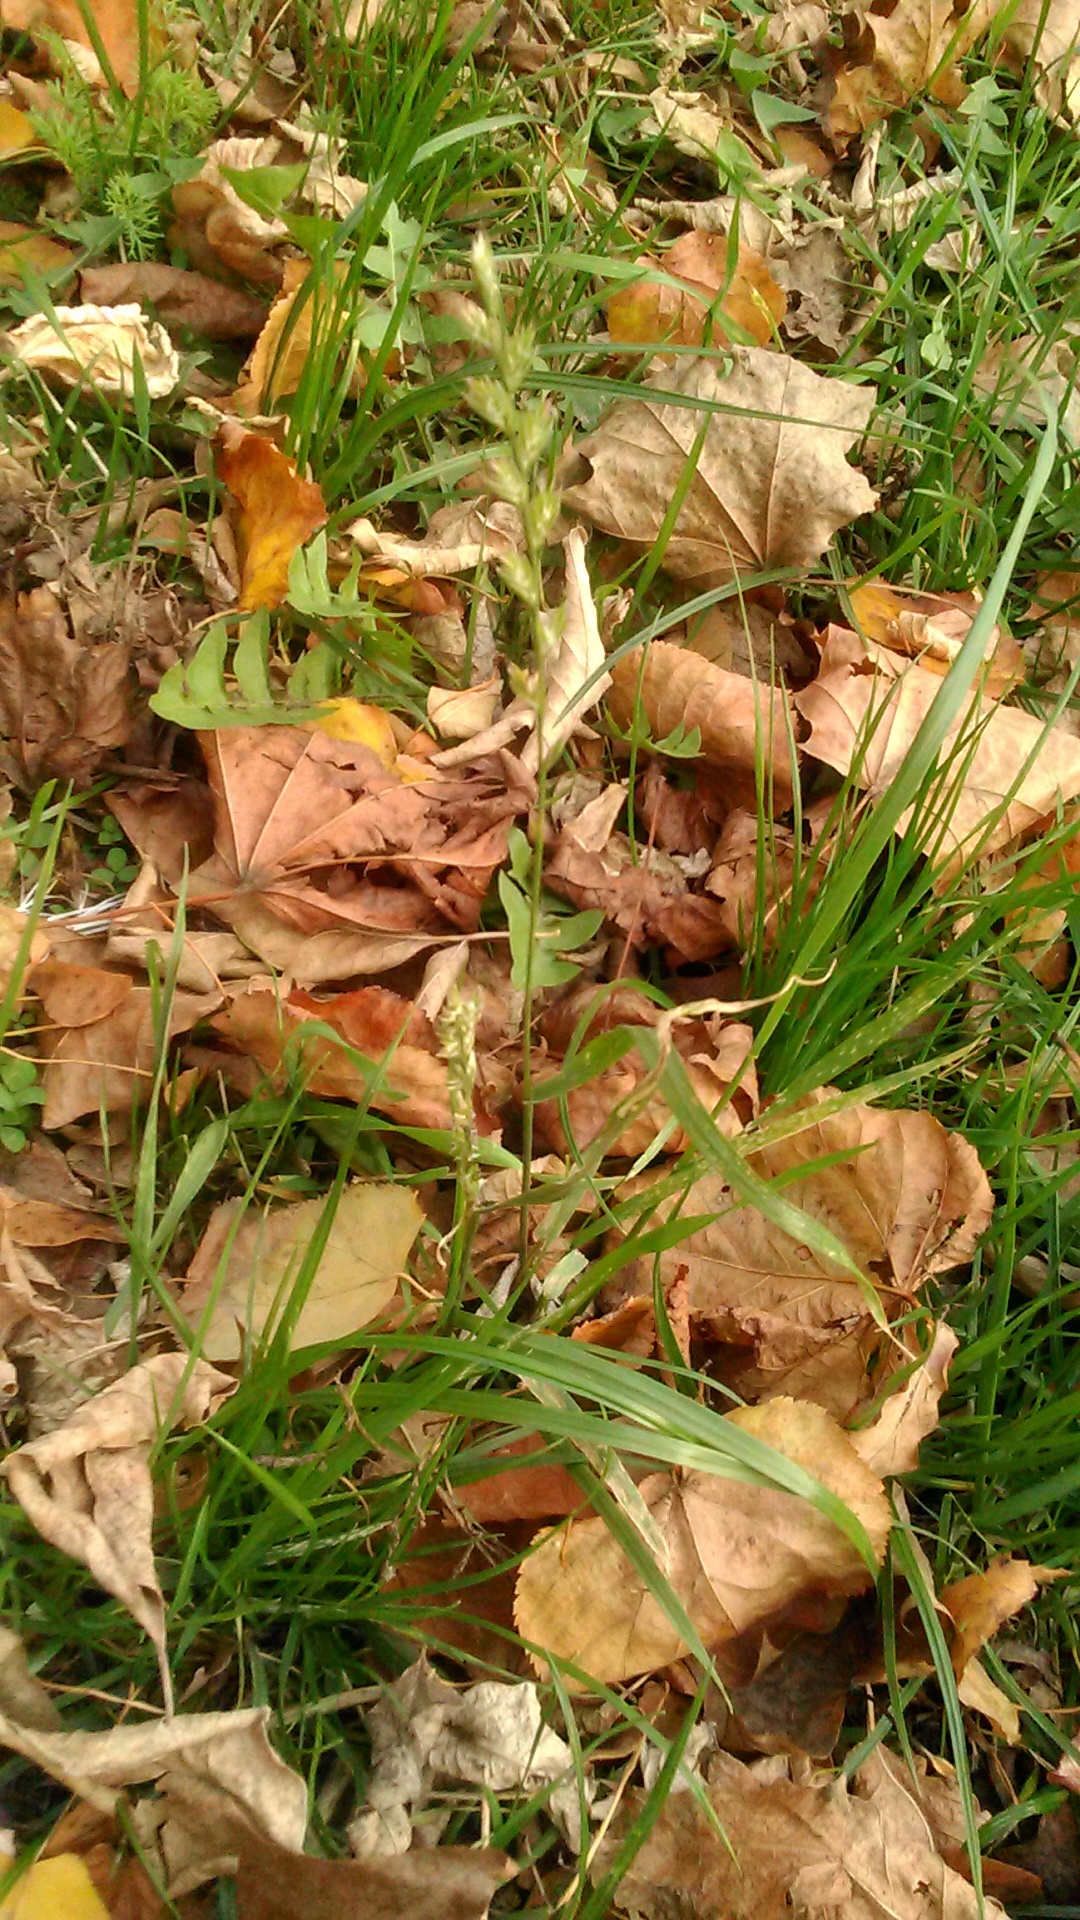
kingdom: Plantae
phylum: Tracheophyta
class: Liliopsida
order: Poales
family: Poaceae
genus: Lolium
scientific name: Lolium perenne
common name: Perennial ryegrass
